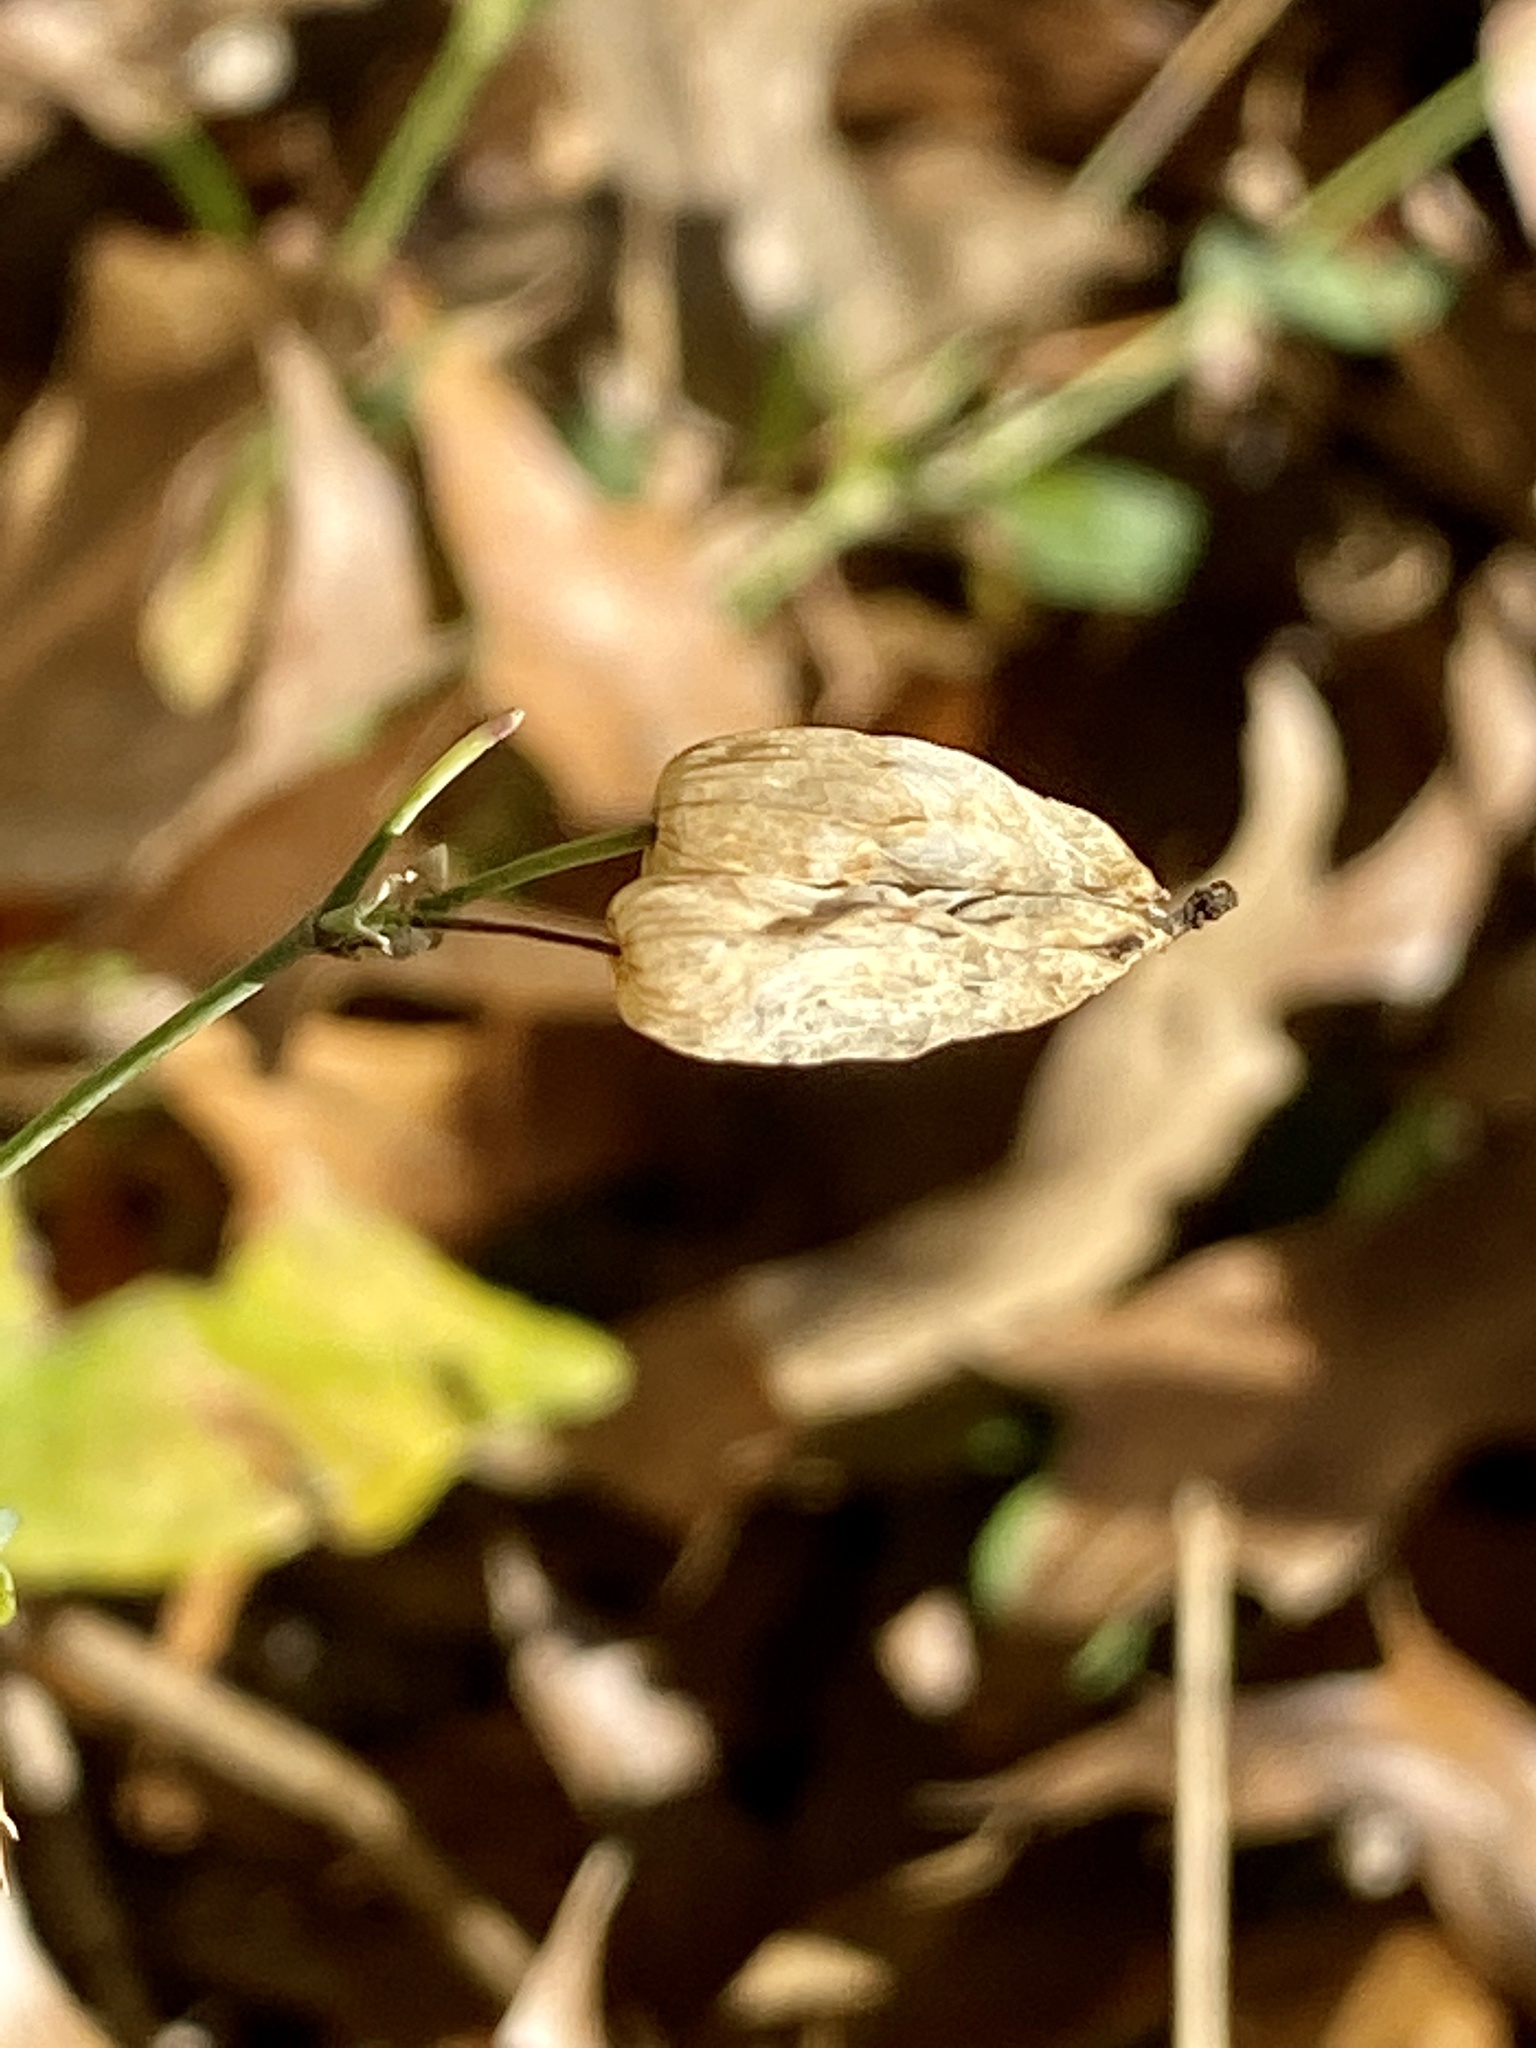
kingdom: Plantae
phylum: Tracheophyta
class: Magnoliopsida
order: Caryophyllales
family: Caryophyllaceae
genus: Silene
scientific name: Silene vulgaris
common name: Bladder campion
